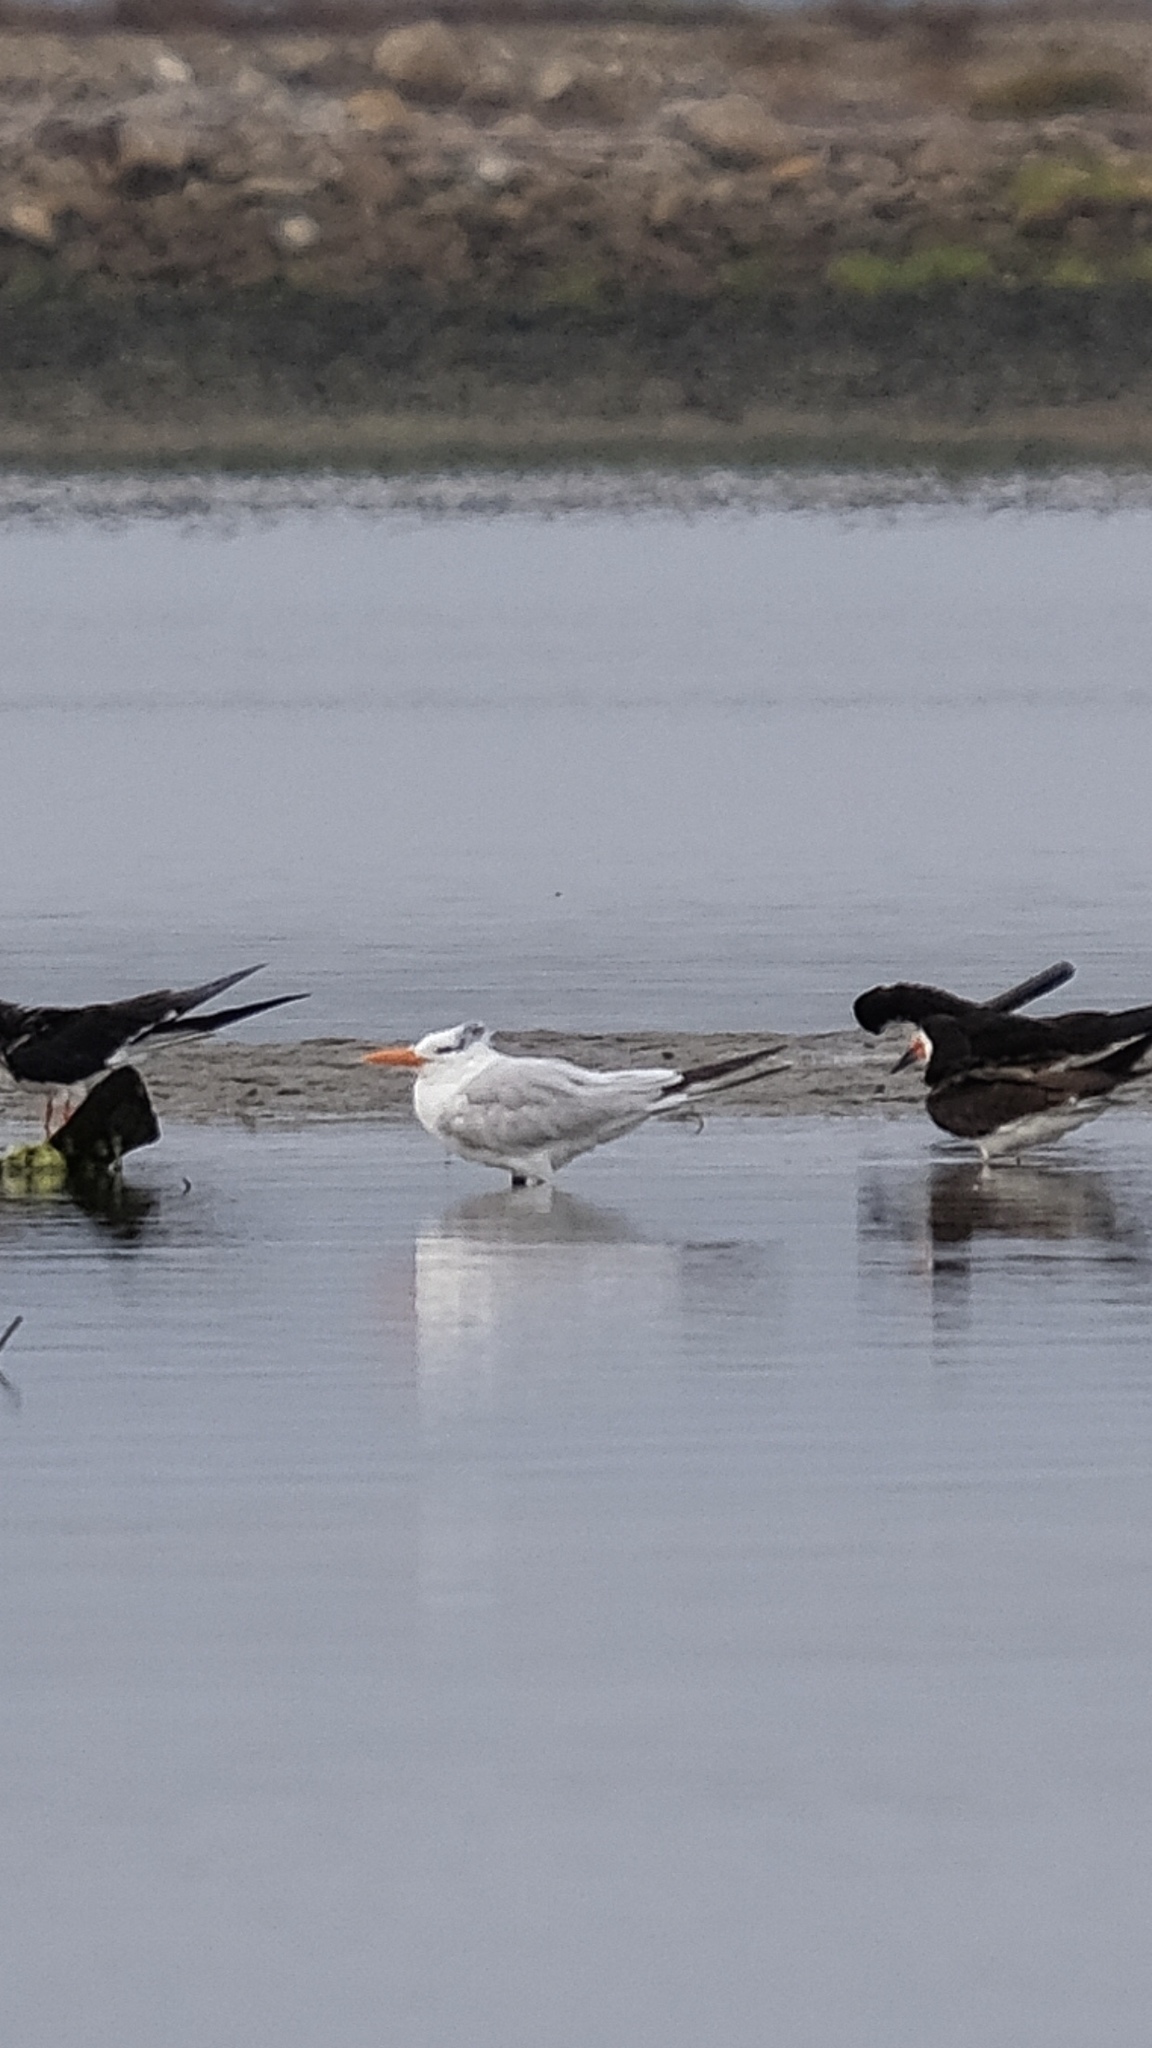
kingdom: Animalia
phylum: Chordata
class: Aves
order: Charadriiformes
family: Laridae
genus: Thalasseus
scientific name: Thalasseus maximus
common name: Royal tern
